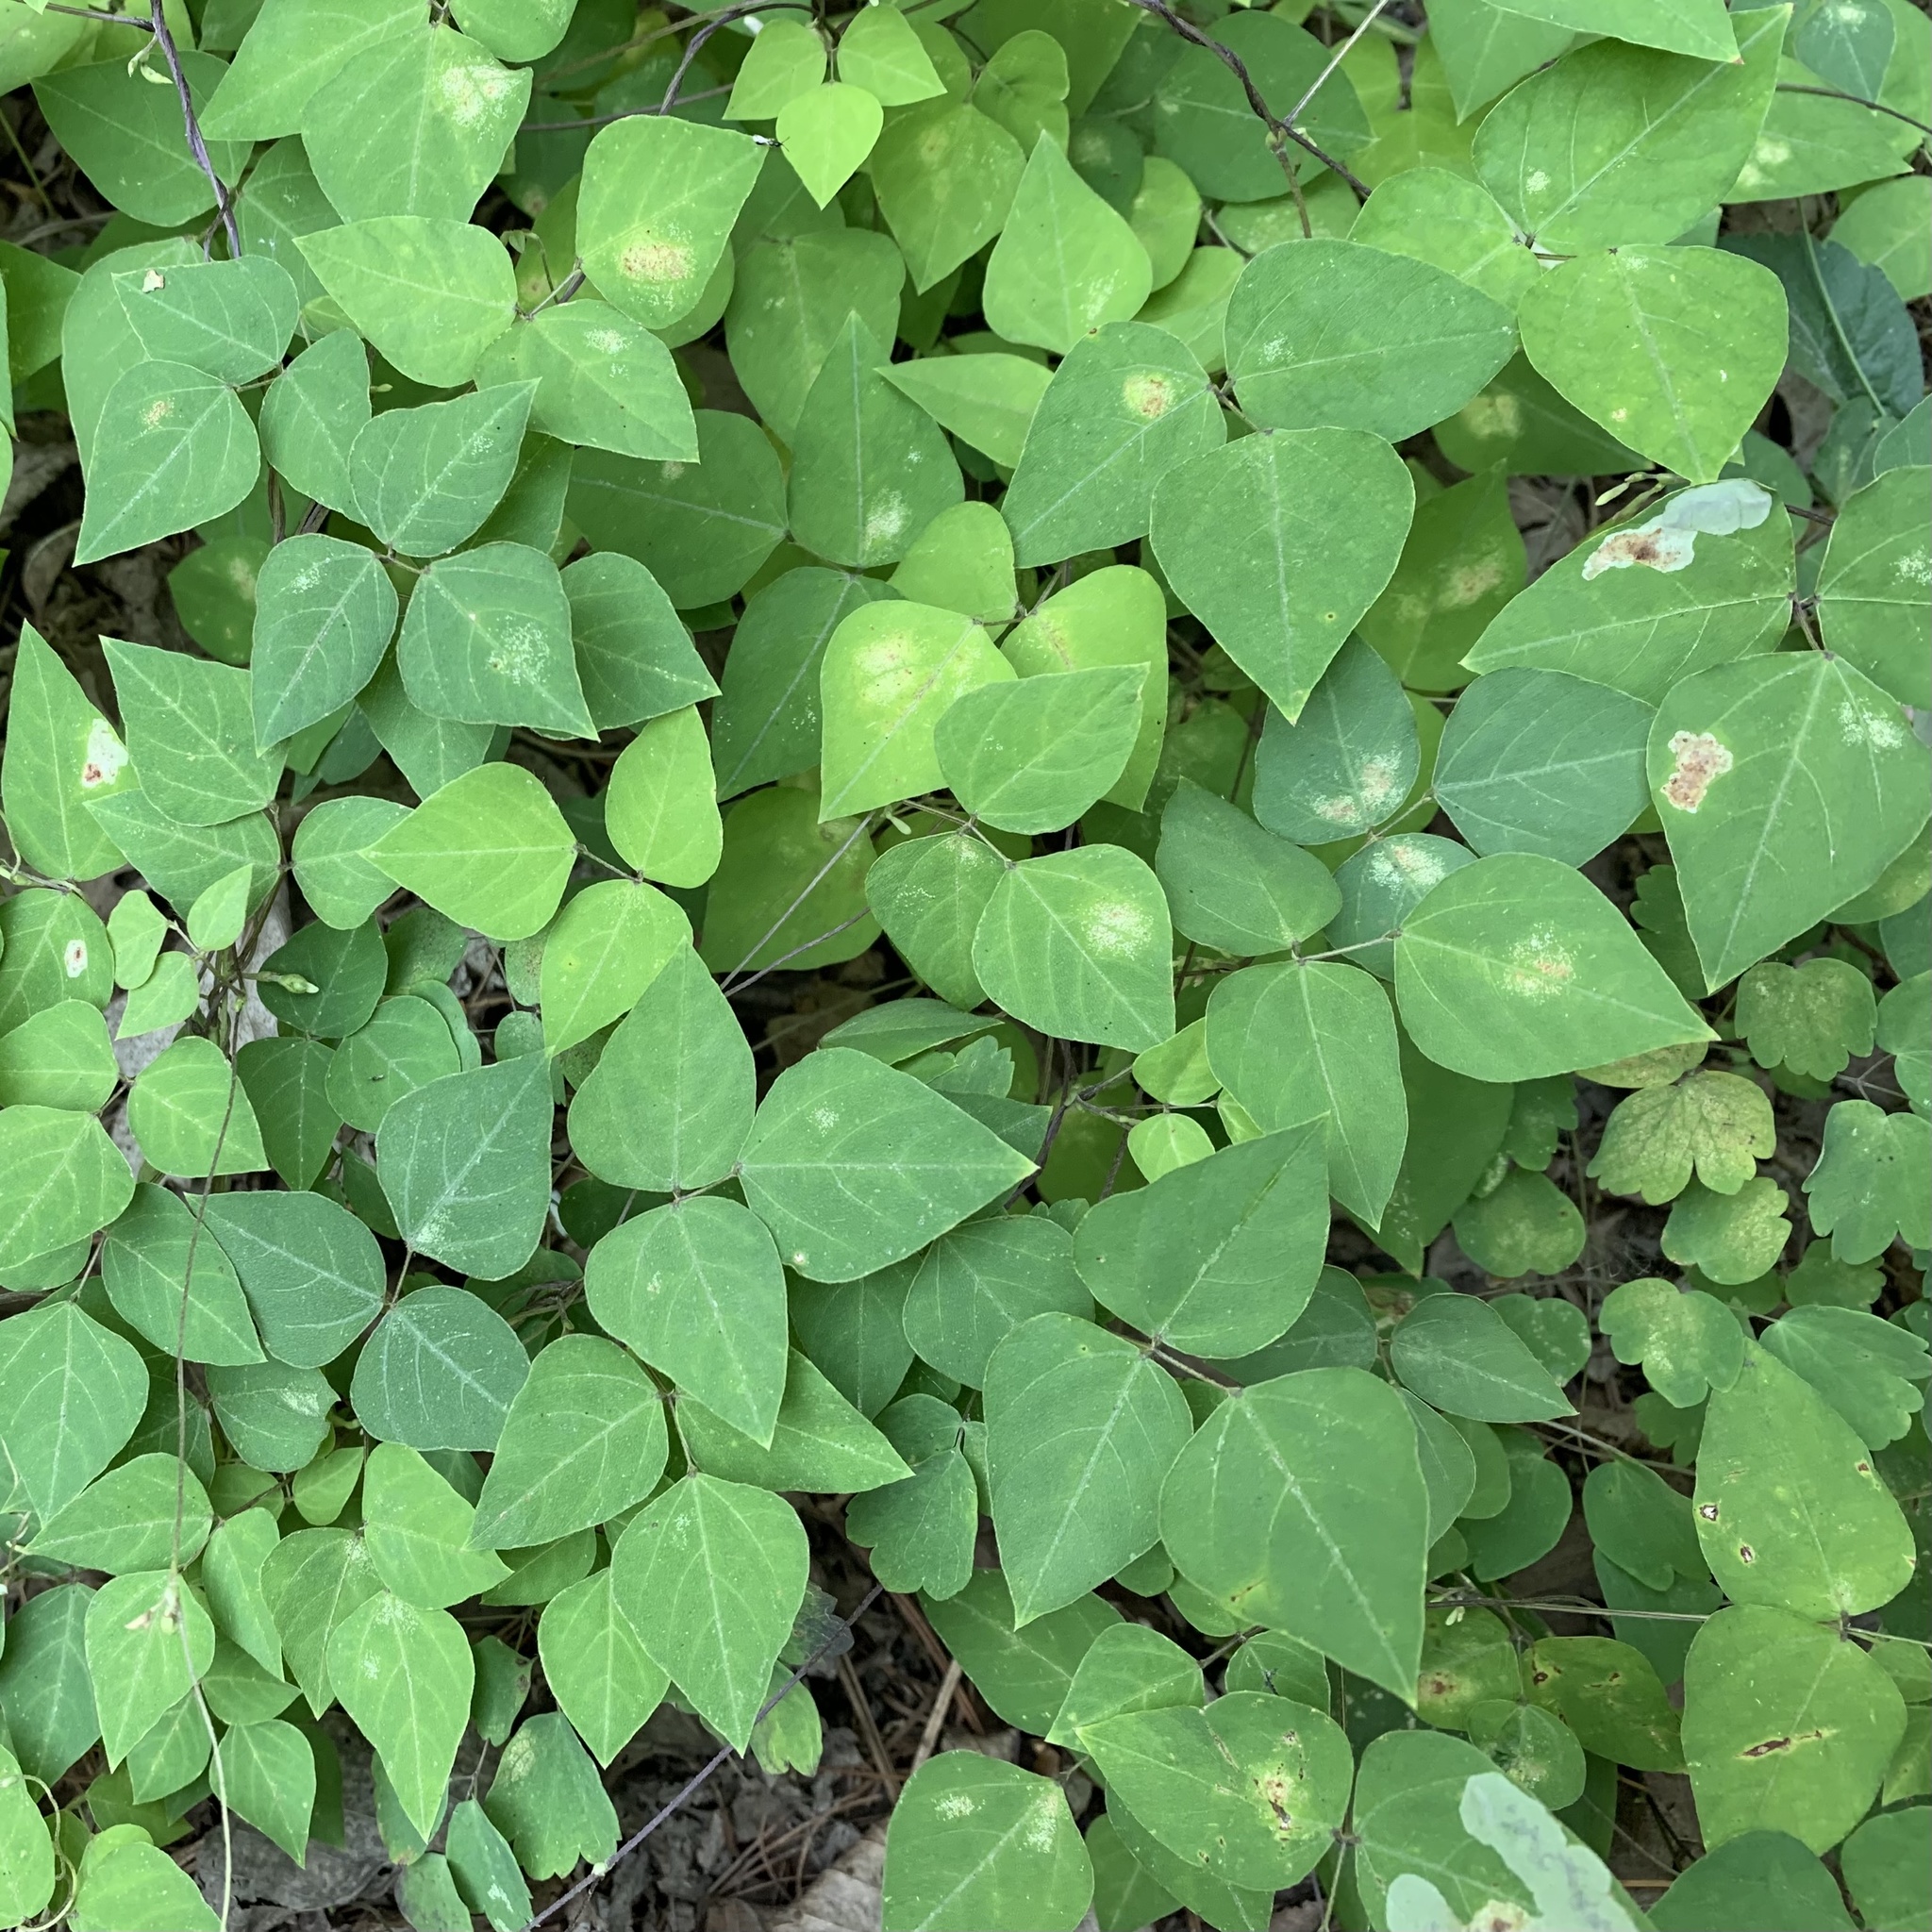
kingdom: Animalia
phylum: Arthropoda
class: Insecta
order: Lepidoptera
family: Gracillariidae
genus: Leucanthiza
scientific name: Leucanthiza amphicarpeaefoliella
